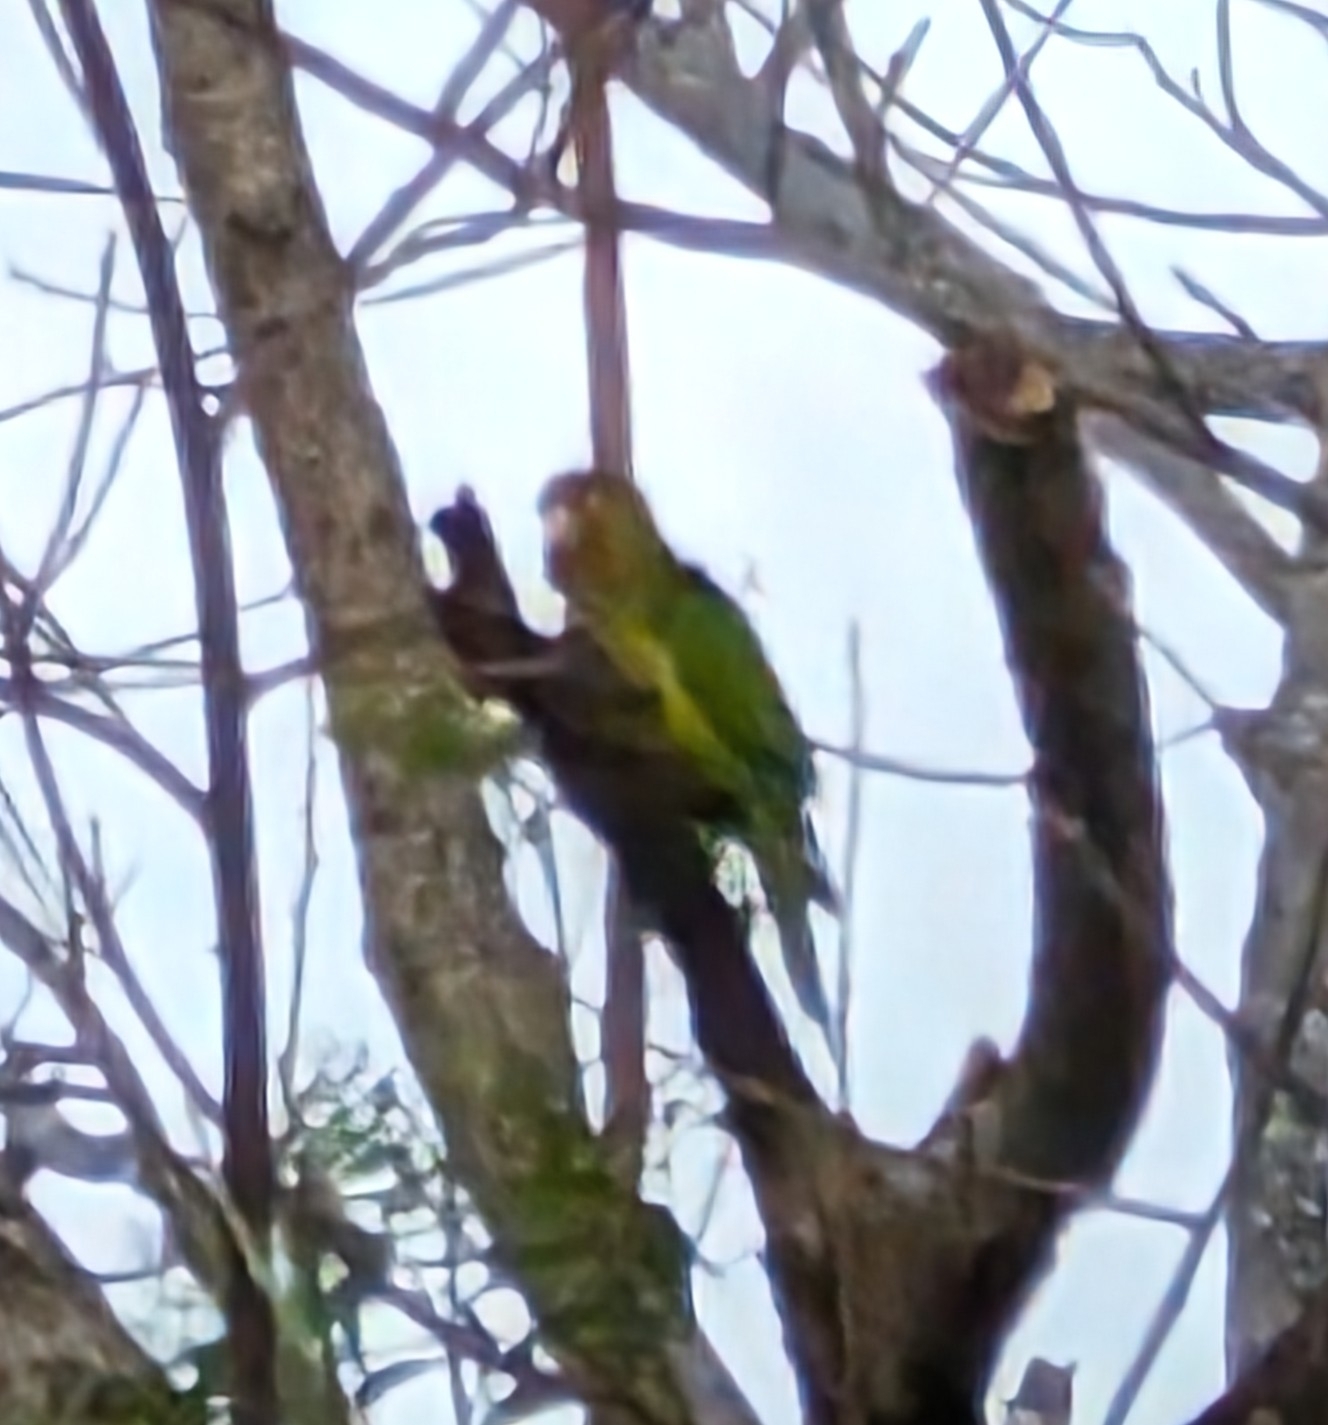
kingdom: Animalia
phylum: Chordata
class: Aves
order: Psittaciformes
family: Psittacidae
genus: Aratinga
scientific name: Aratinga canicularis
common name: Orange-fronted parakeet
